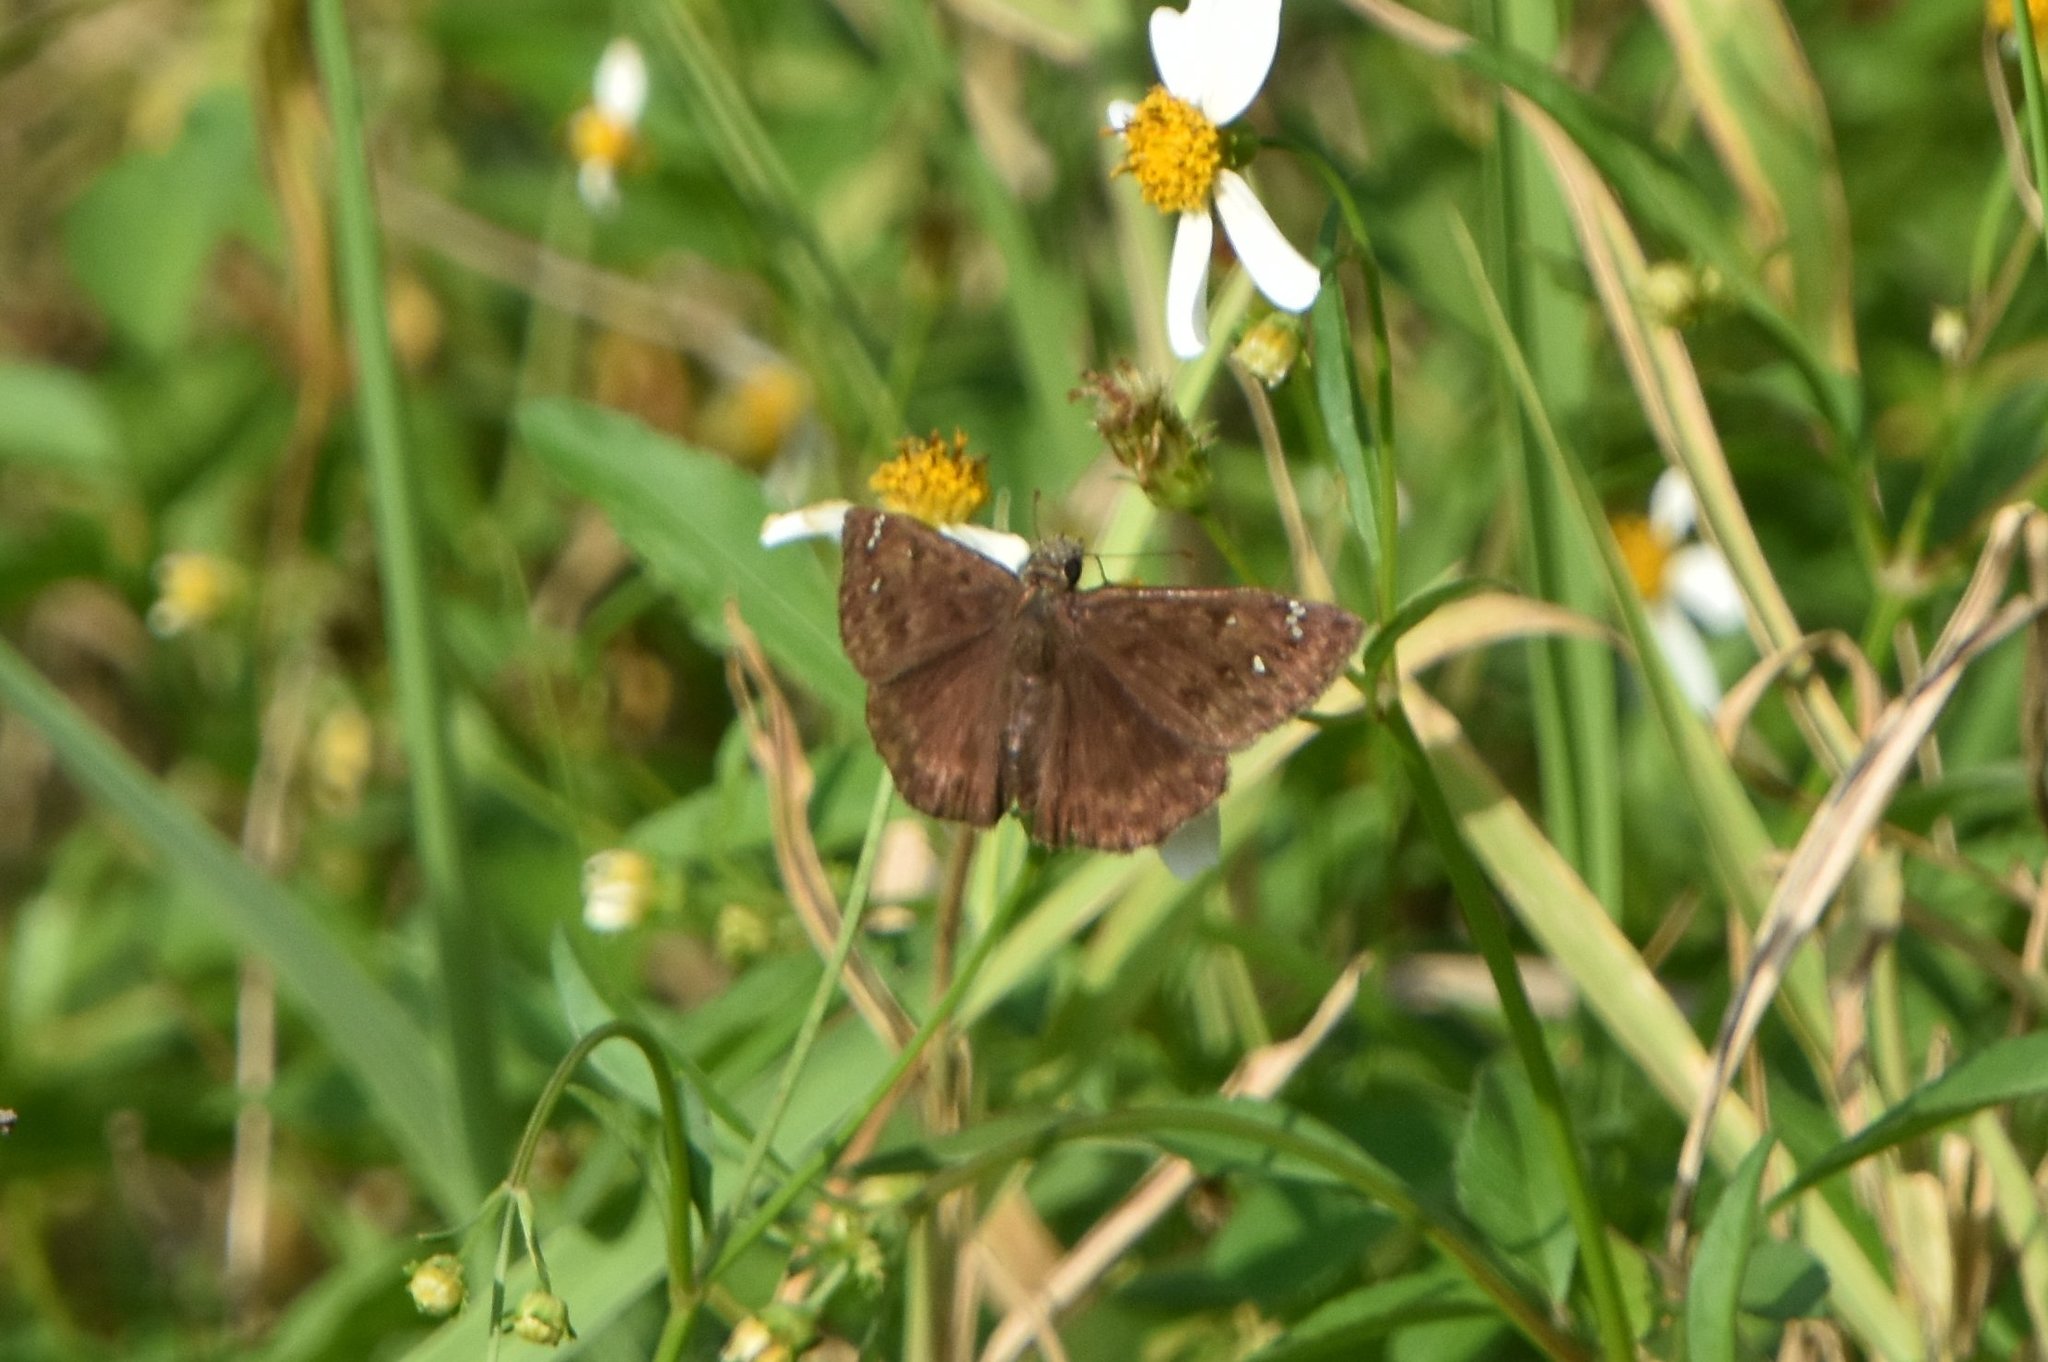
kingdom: Animalia
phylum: Arthropoda
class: Insecta
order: Lepidoptera
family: Hesperiidae
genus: Erynnis
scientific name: Erynnis horatius
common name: Horace's duskywing
